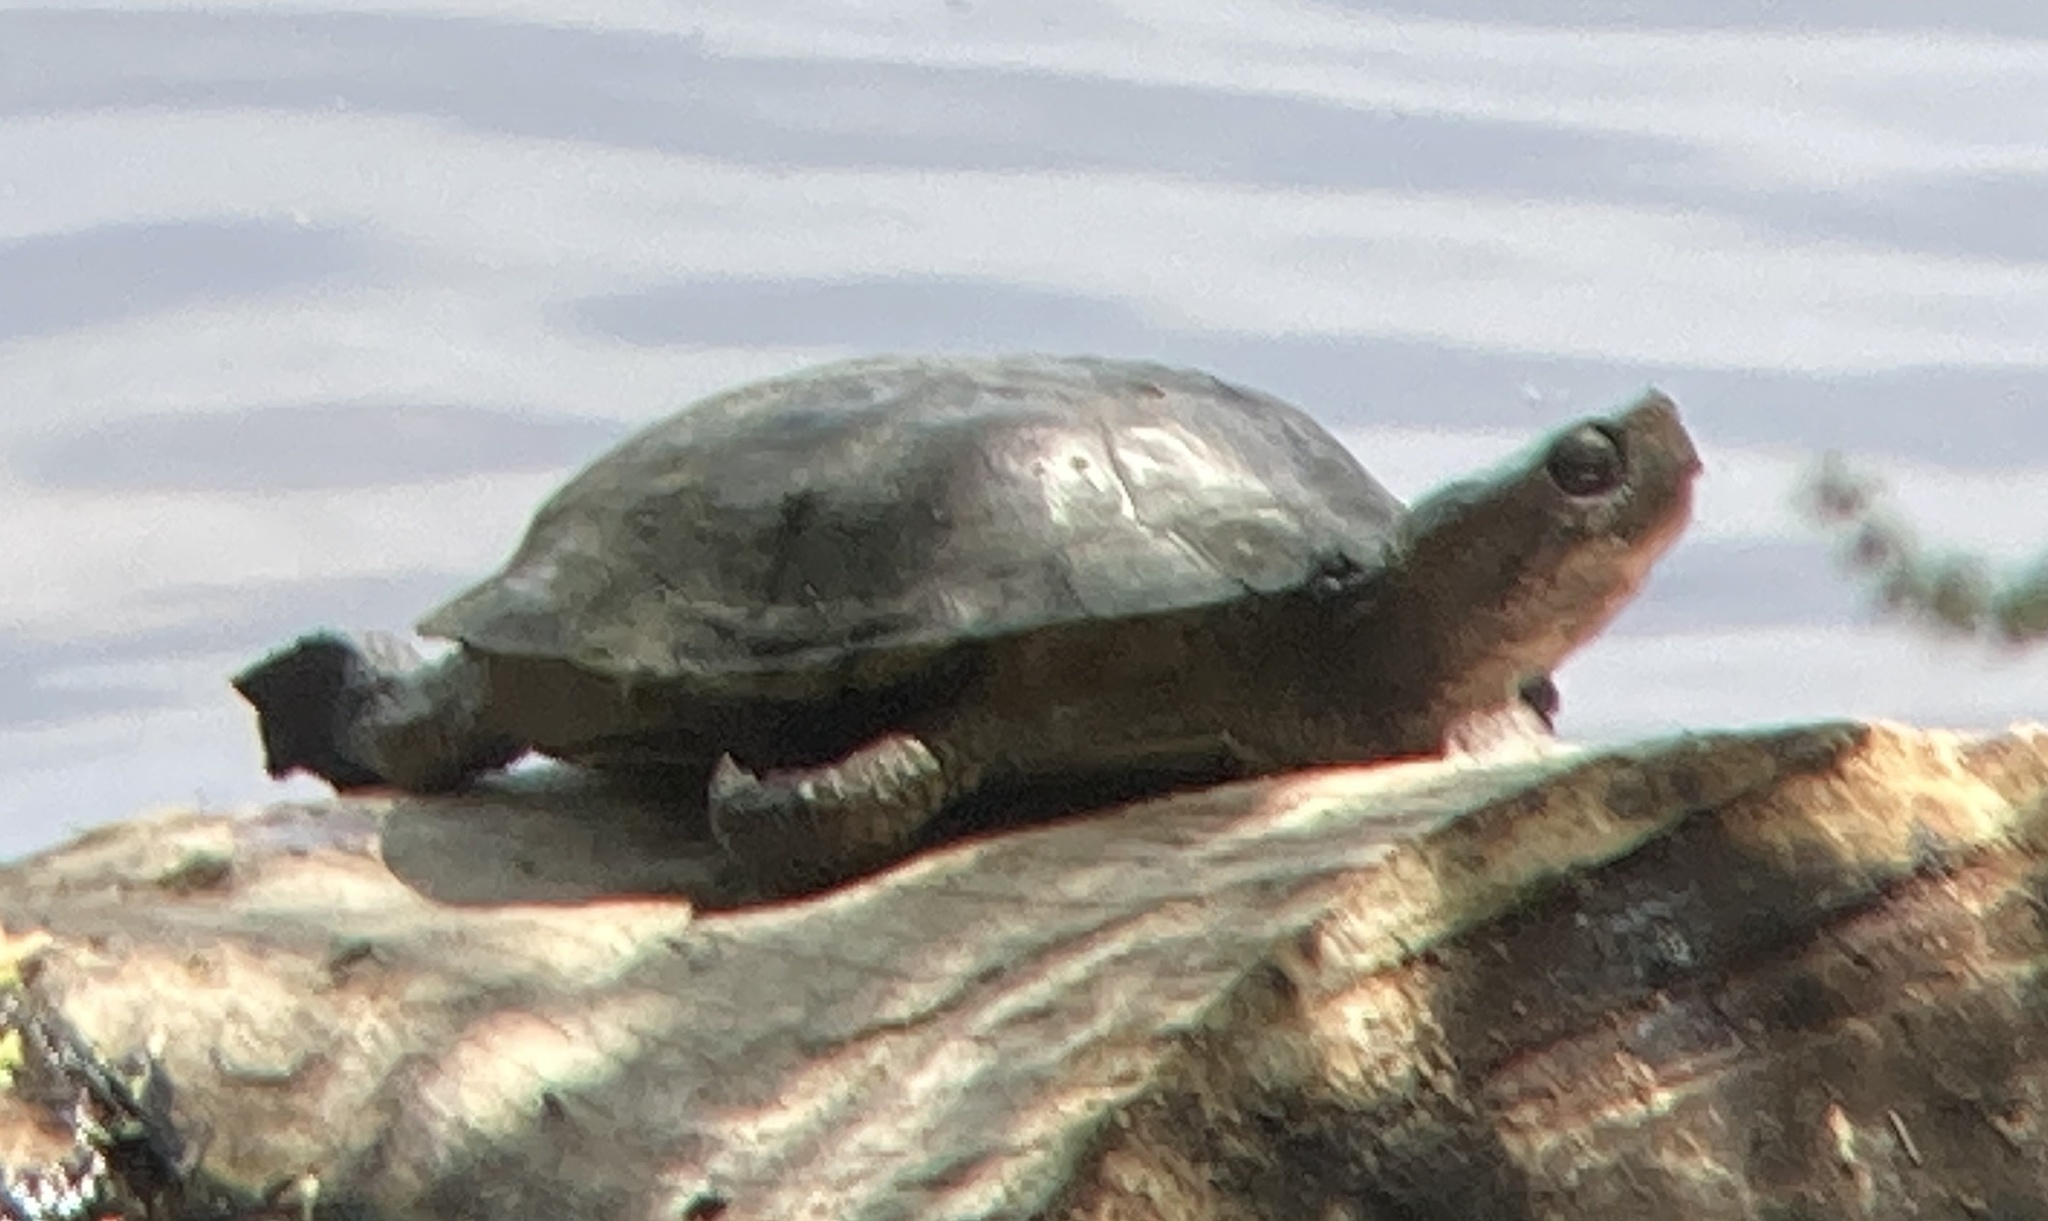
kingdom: Animalia
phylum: Chordata
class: Testudines
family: Emydidae
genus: Actinemys
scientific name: Actinemys marmorata
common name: Western pond turtle
